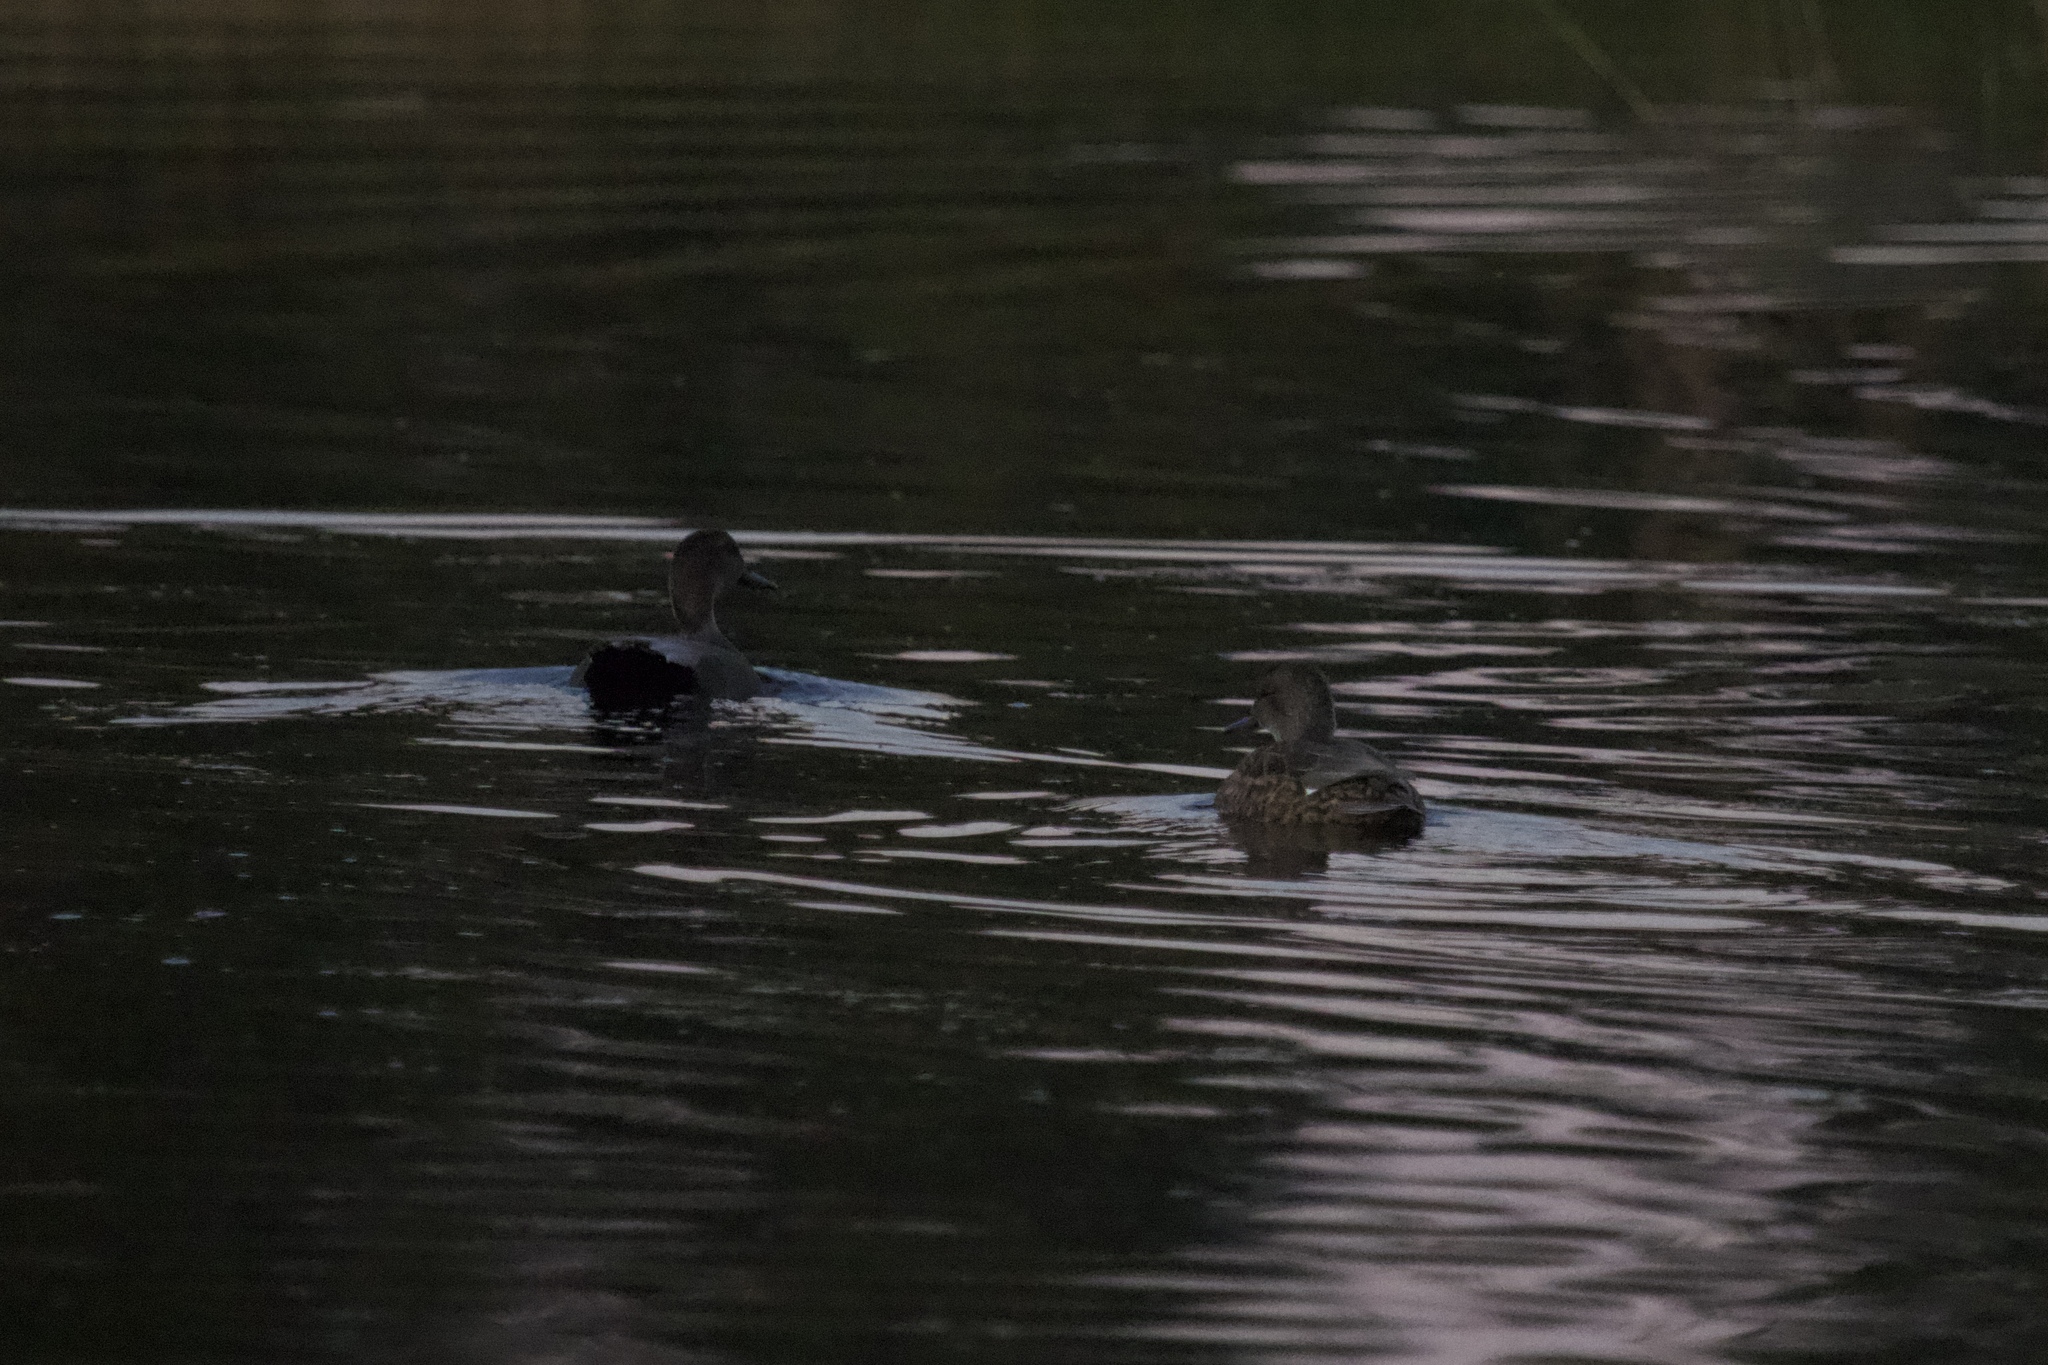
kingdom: Animalia
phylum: Chordata
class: Aves
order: Anseriformes
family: Anatidae
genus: Mareca
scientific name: Mareca strepera
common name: Gadwall
